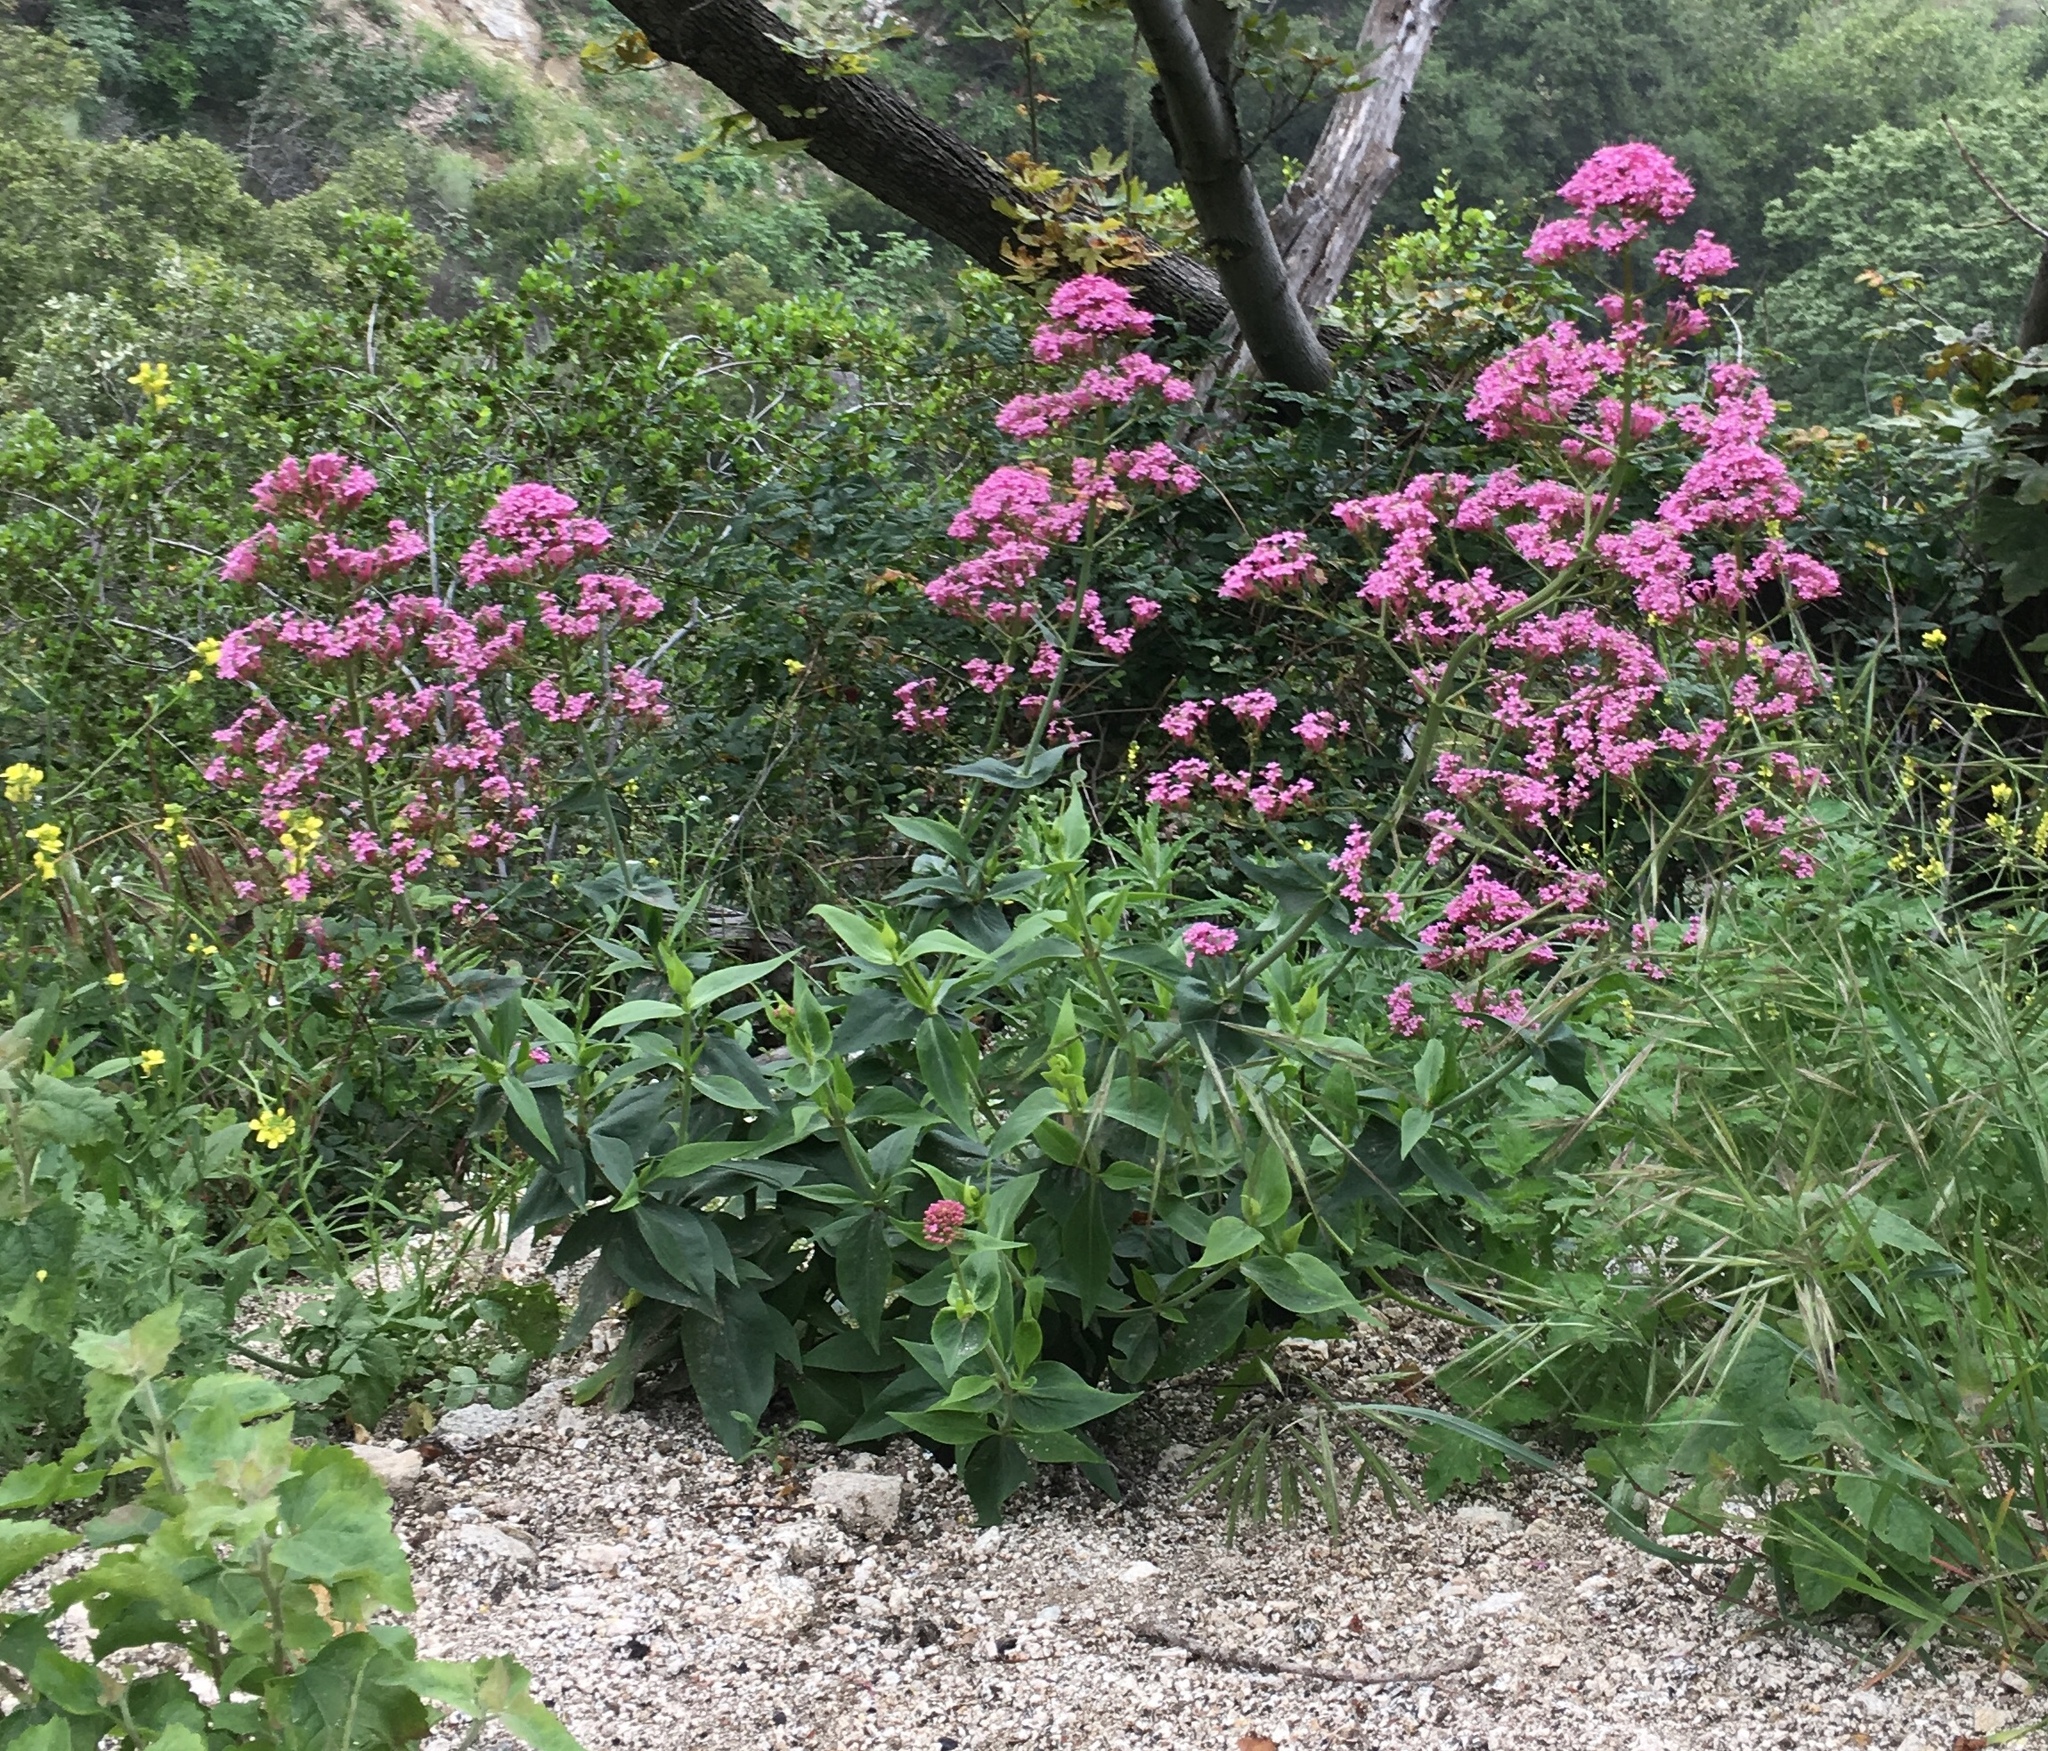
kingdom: Plantae
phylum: Tracheophyta
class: Magnoliopsida
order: Dipsacales
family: Caprifoliaceae
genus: Centranthus
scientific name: Centranthus ruber
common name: Red valerian
